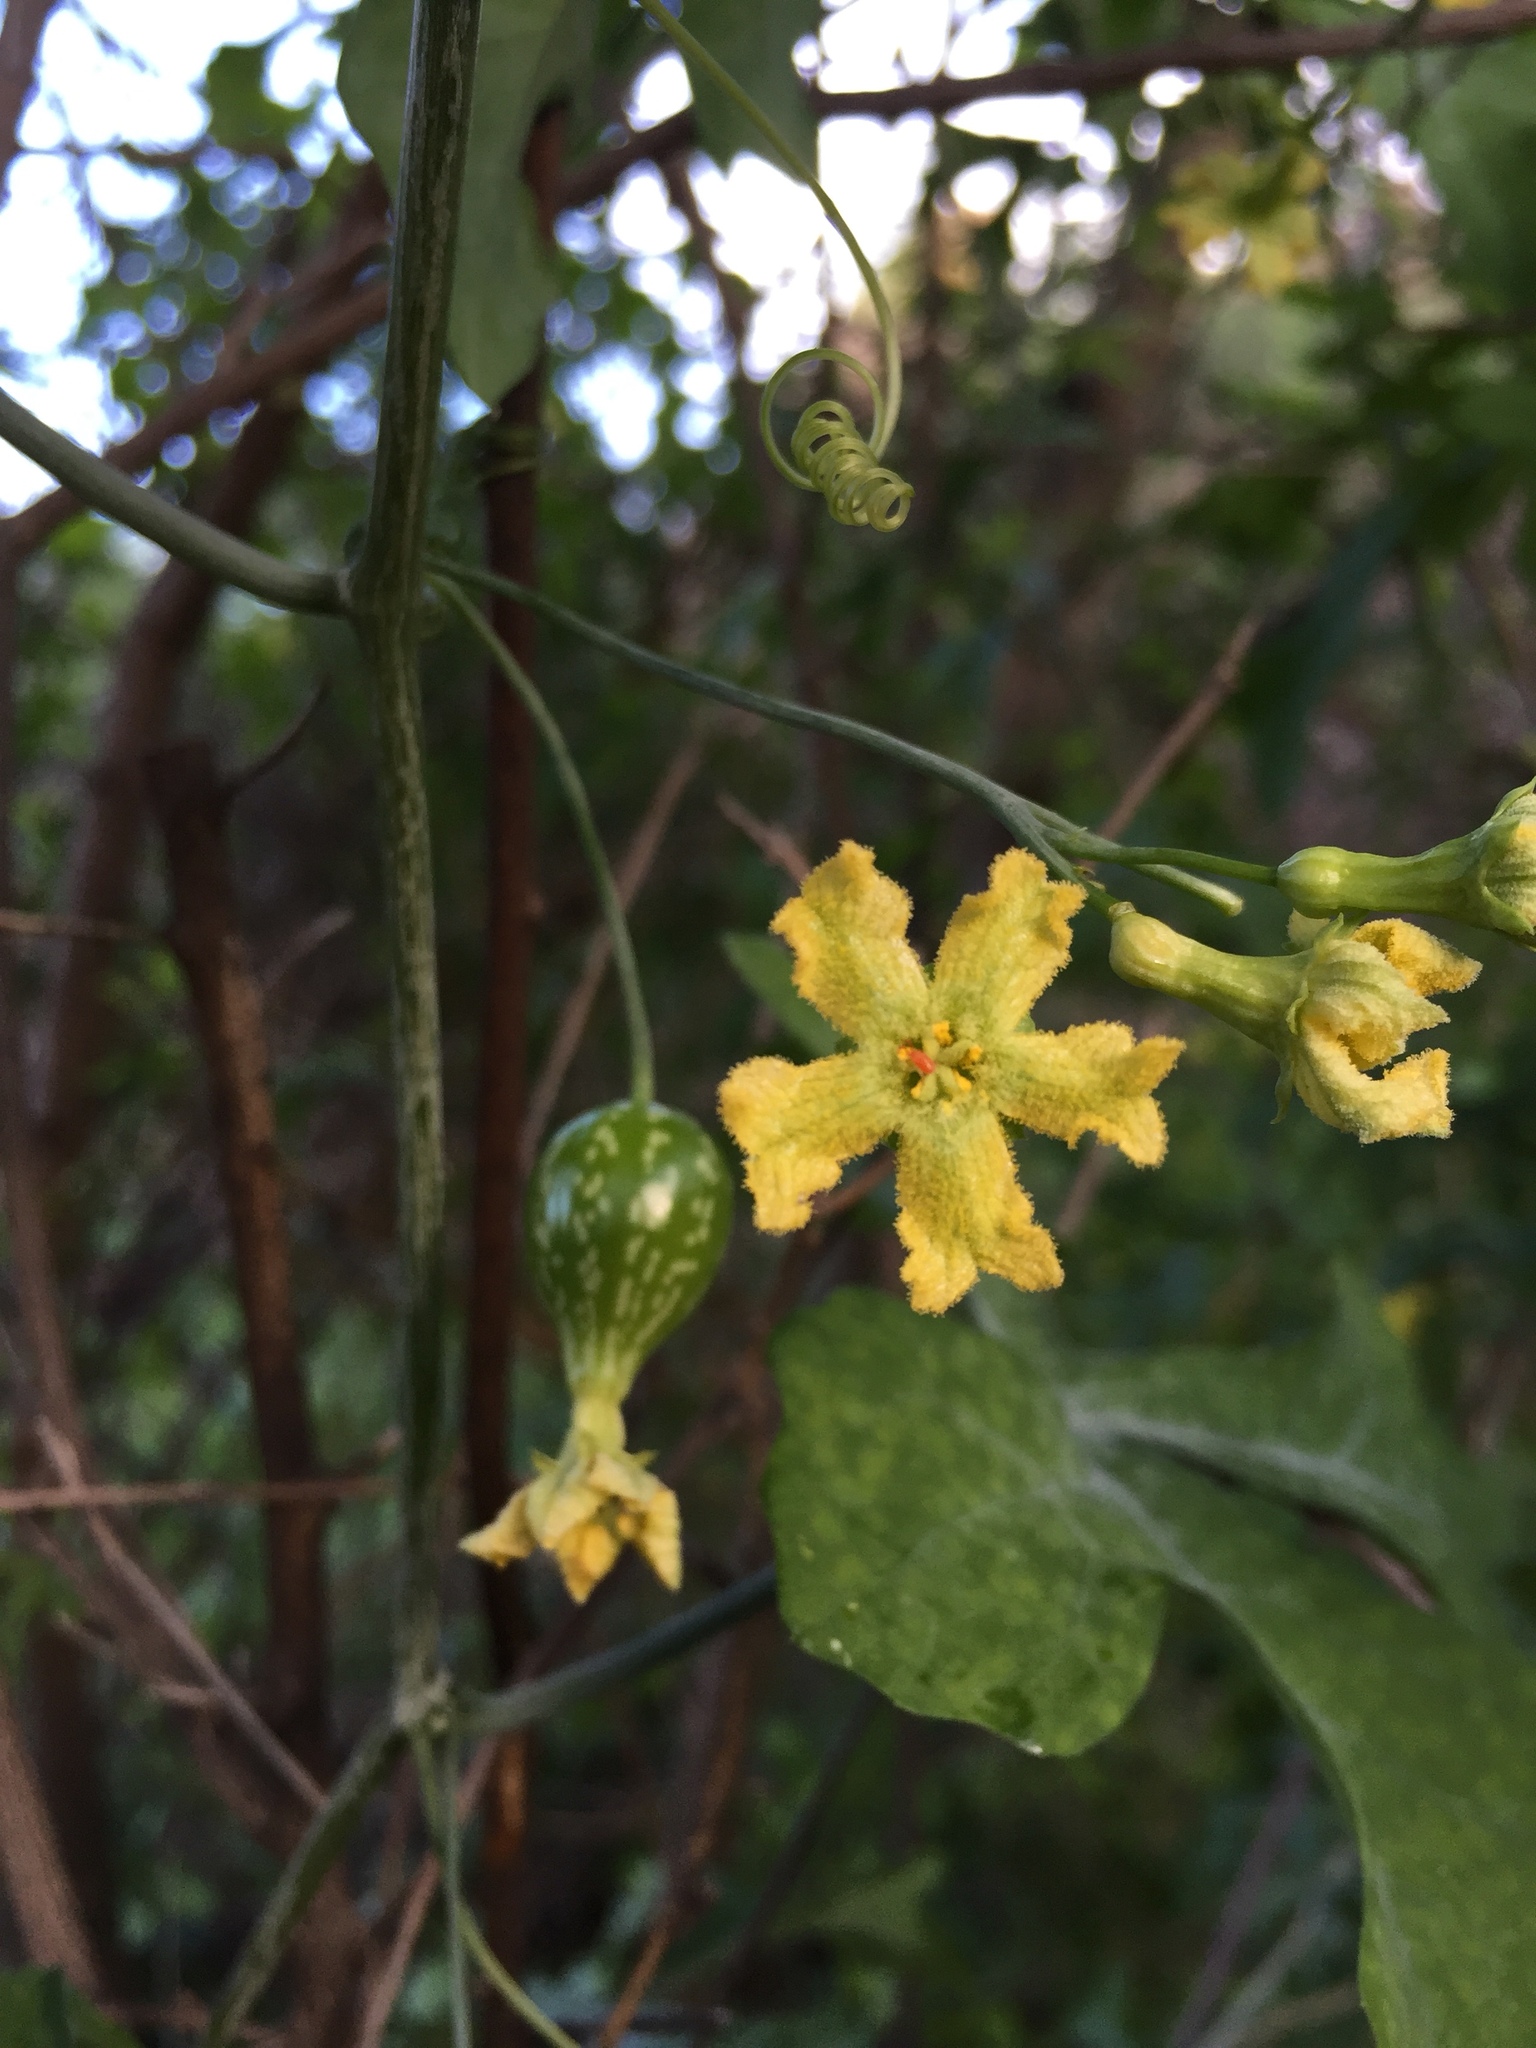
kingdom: Plantae
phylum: Tracheophyta
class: Magnoliopsida
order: Cucurbitales
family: Cucurbitaceae
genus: Ibervillea
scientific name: Ibervillea sonorae
